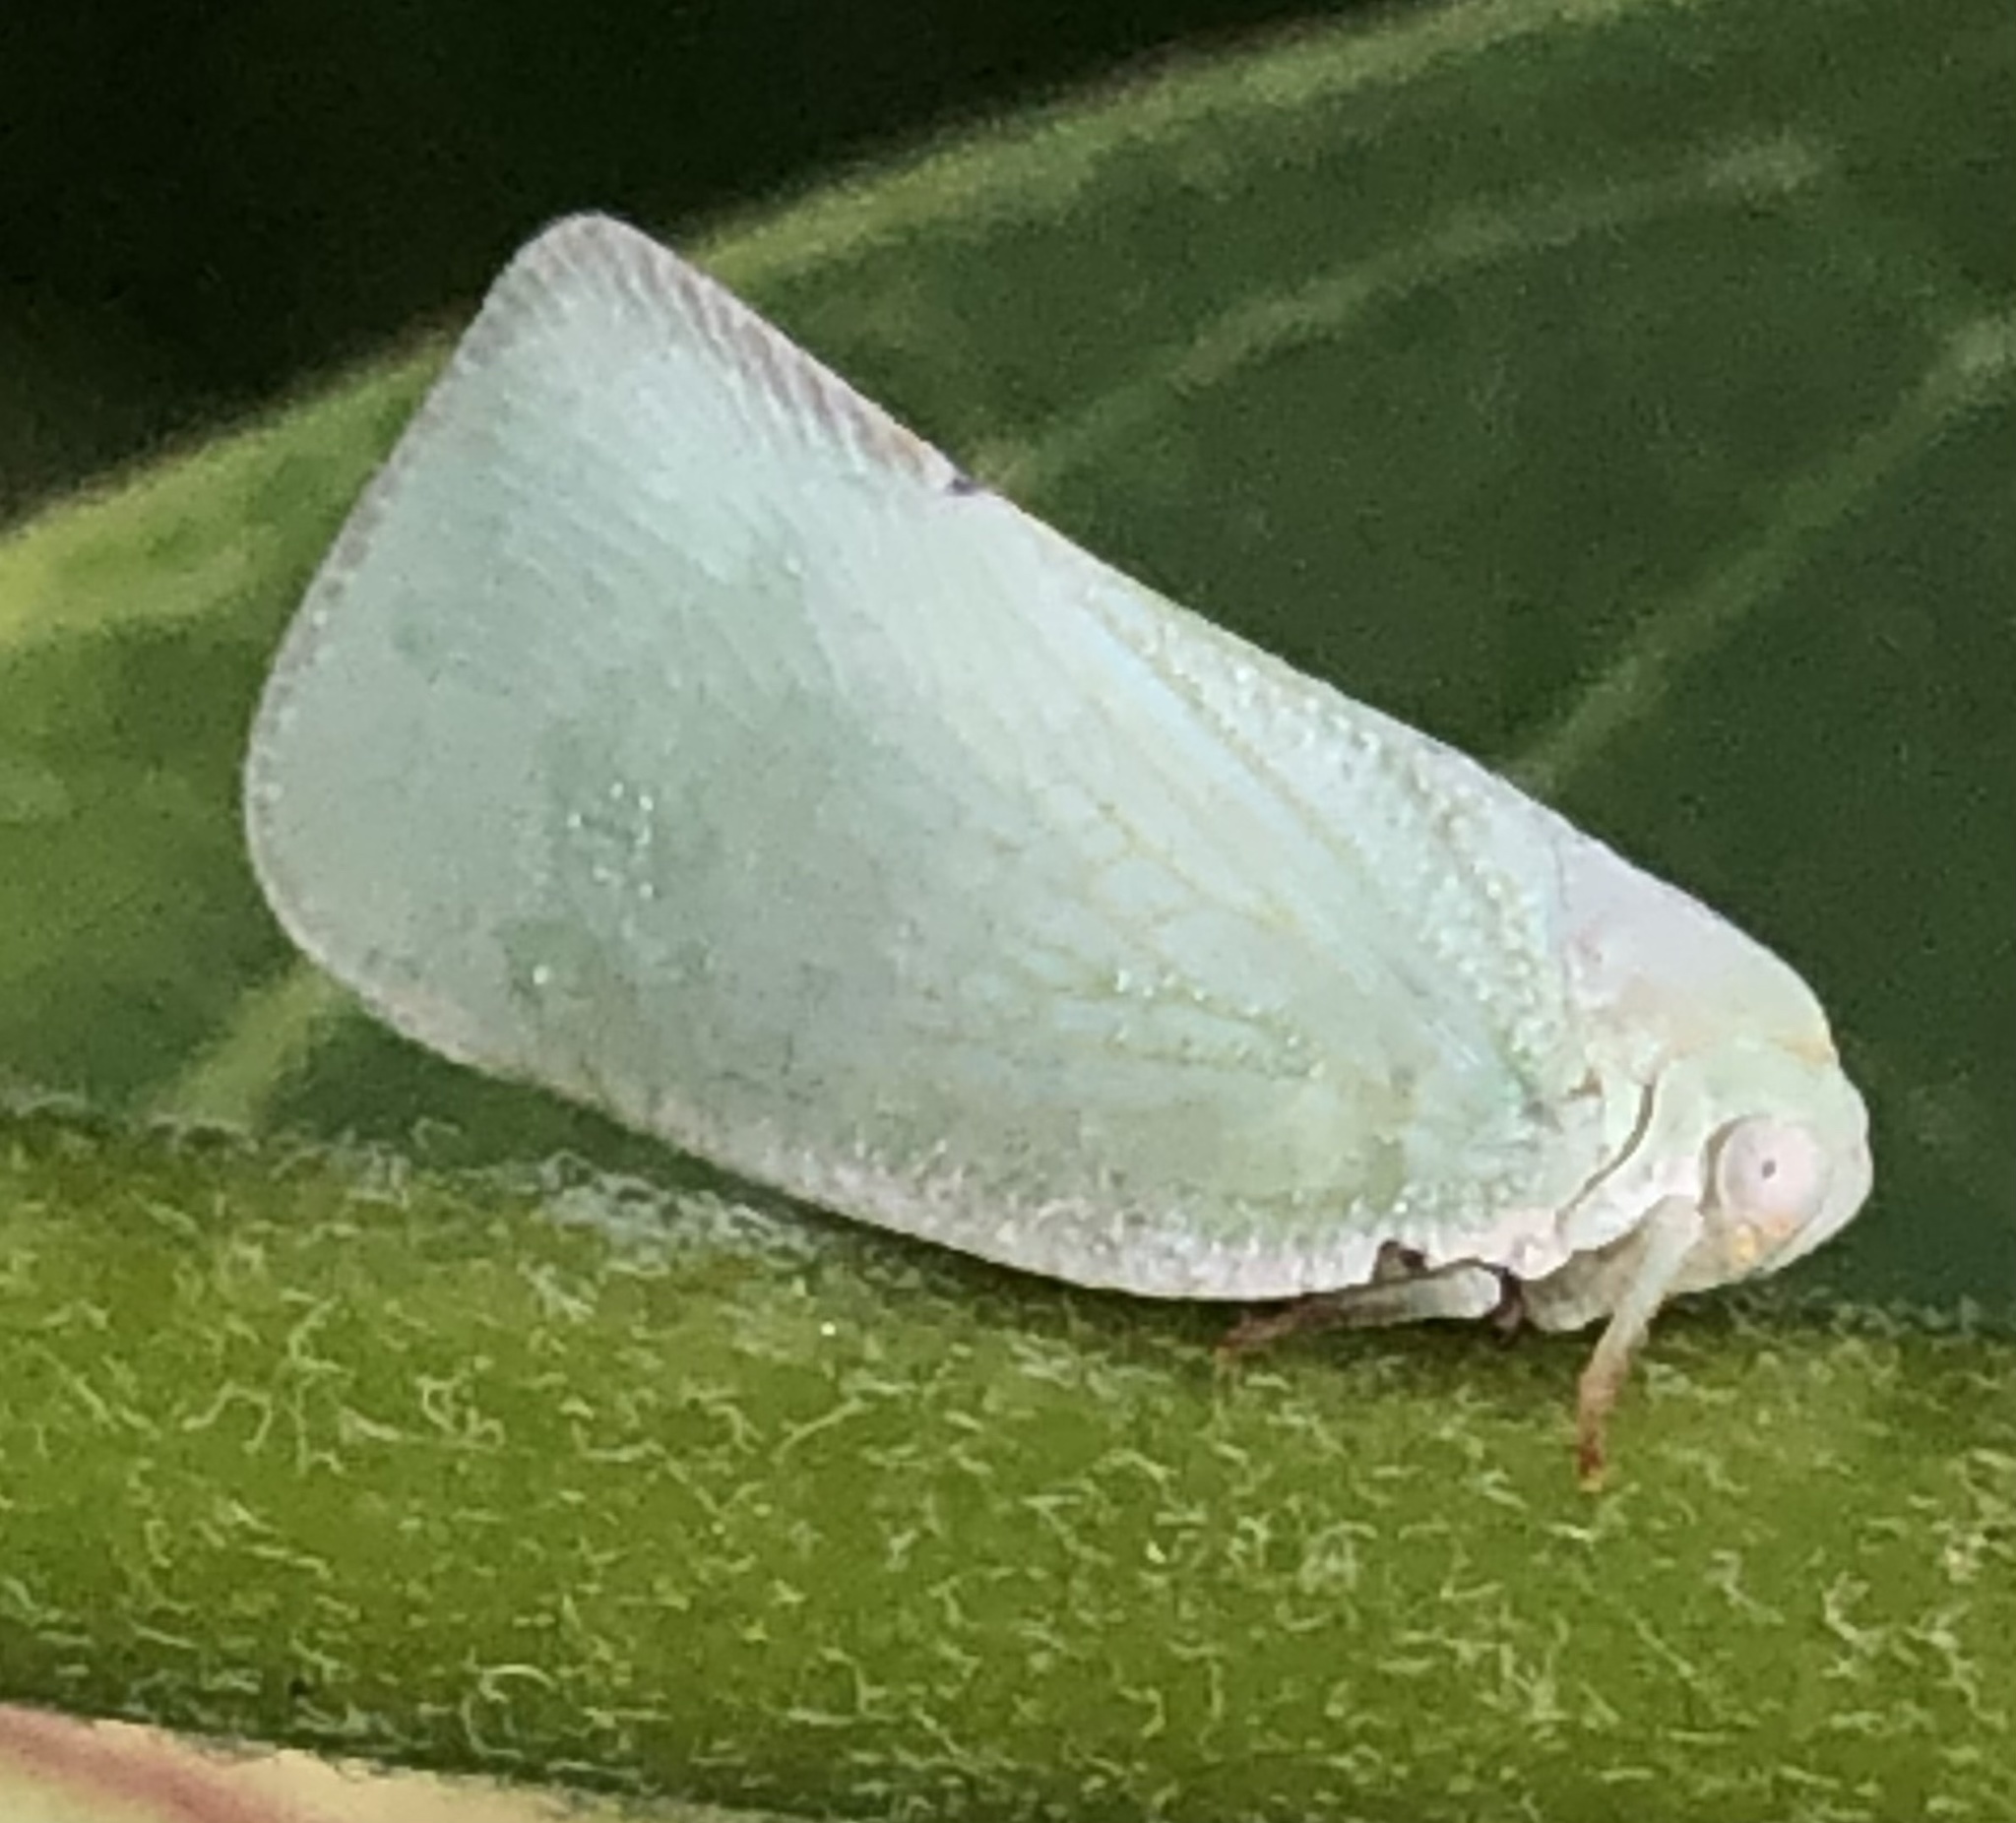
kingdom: Animalia
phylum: Arthropoda
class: Insecta
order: Hemiptera
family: Flatidae
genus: Flatormenis
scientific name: Flatormenis proxima
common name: Northern flatid planthopper
